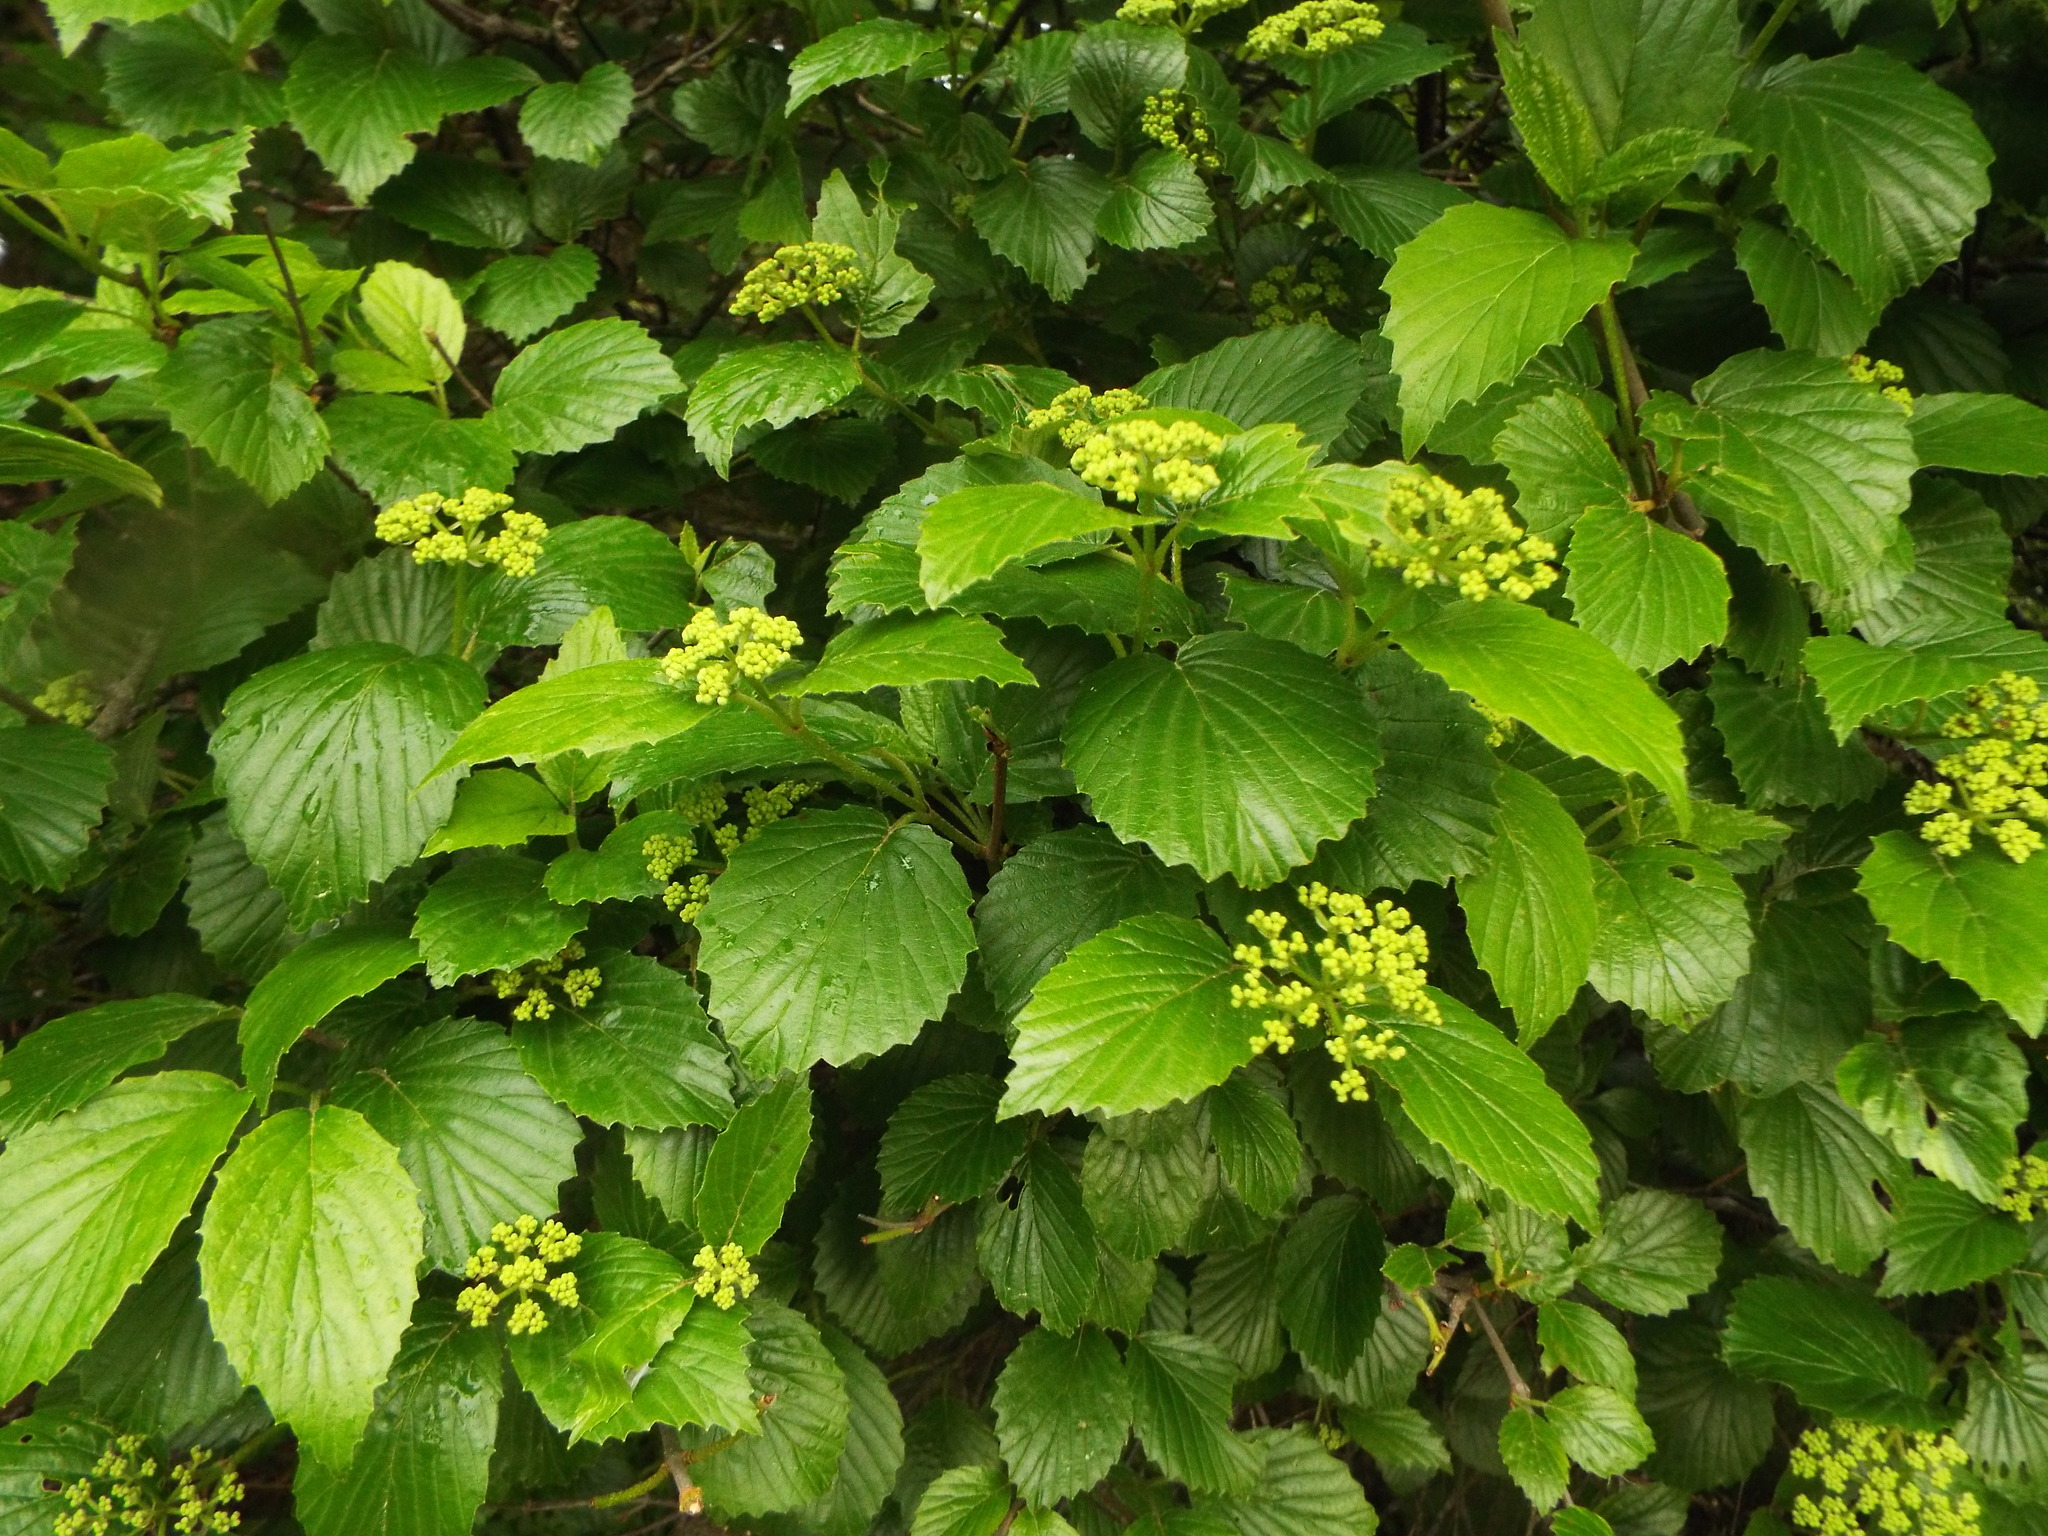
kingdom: Plantae
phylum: Tracheophyta
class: Magnoliopsida
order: Dipsacales
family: Viburnaceae
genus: Viburnum
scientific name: Viburnum dentatum
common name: Arrow-wood
